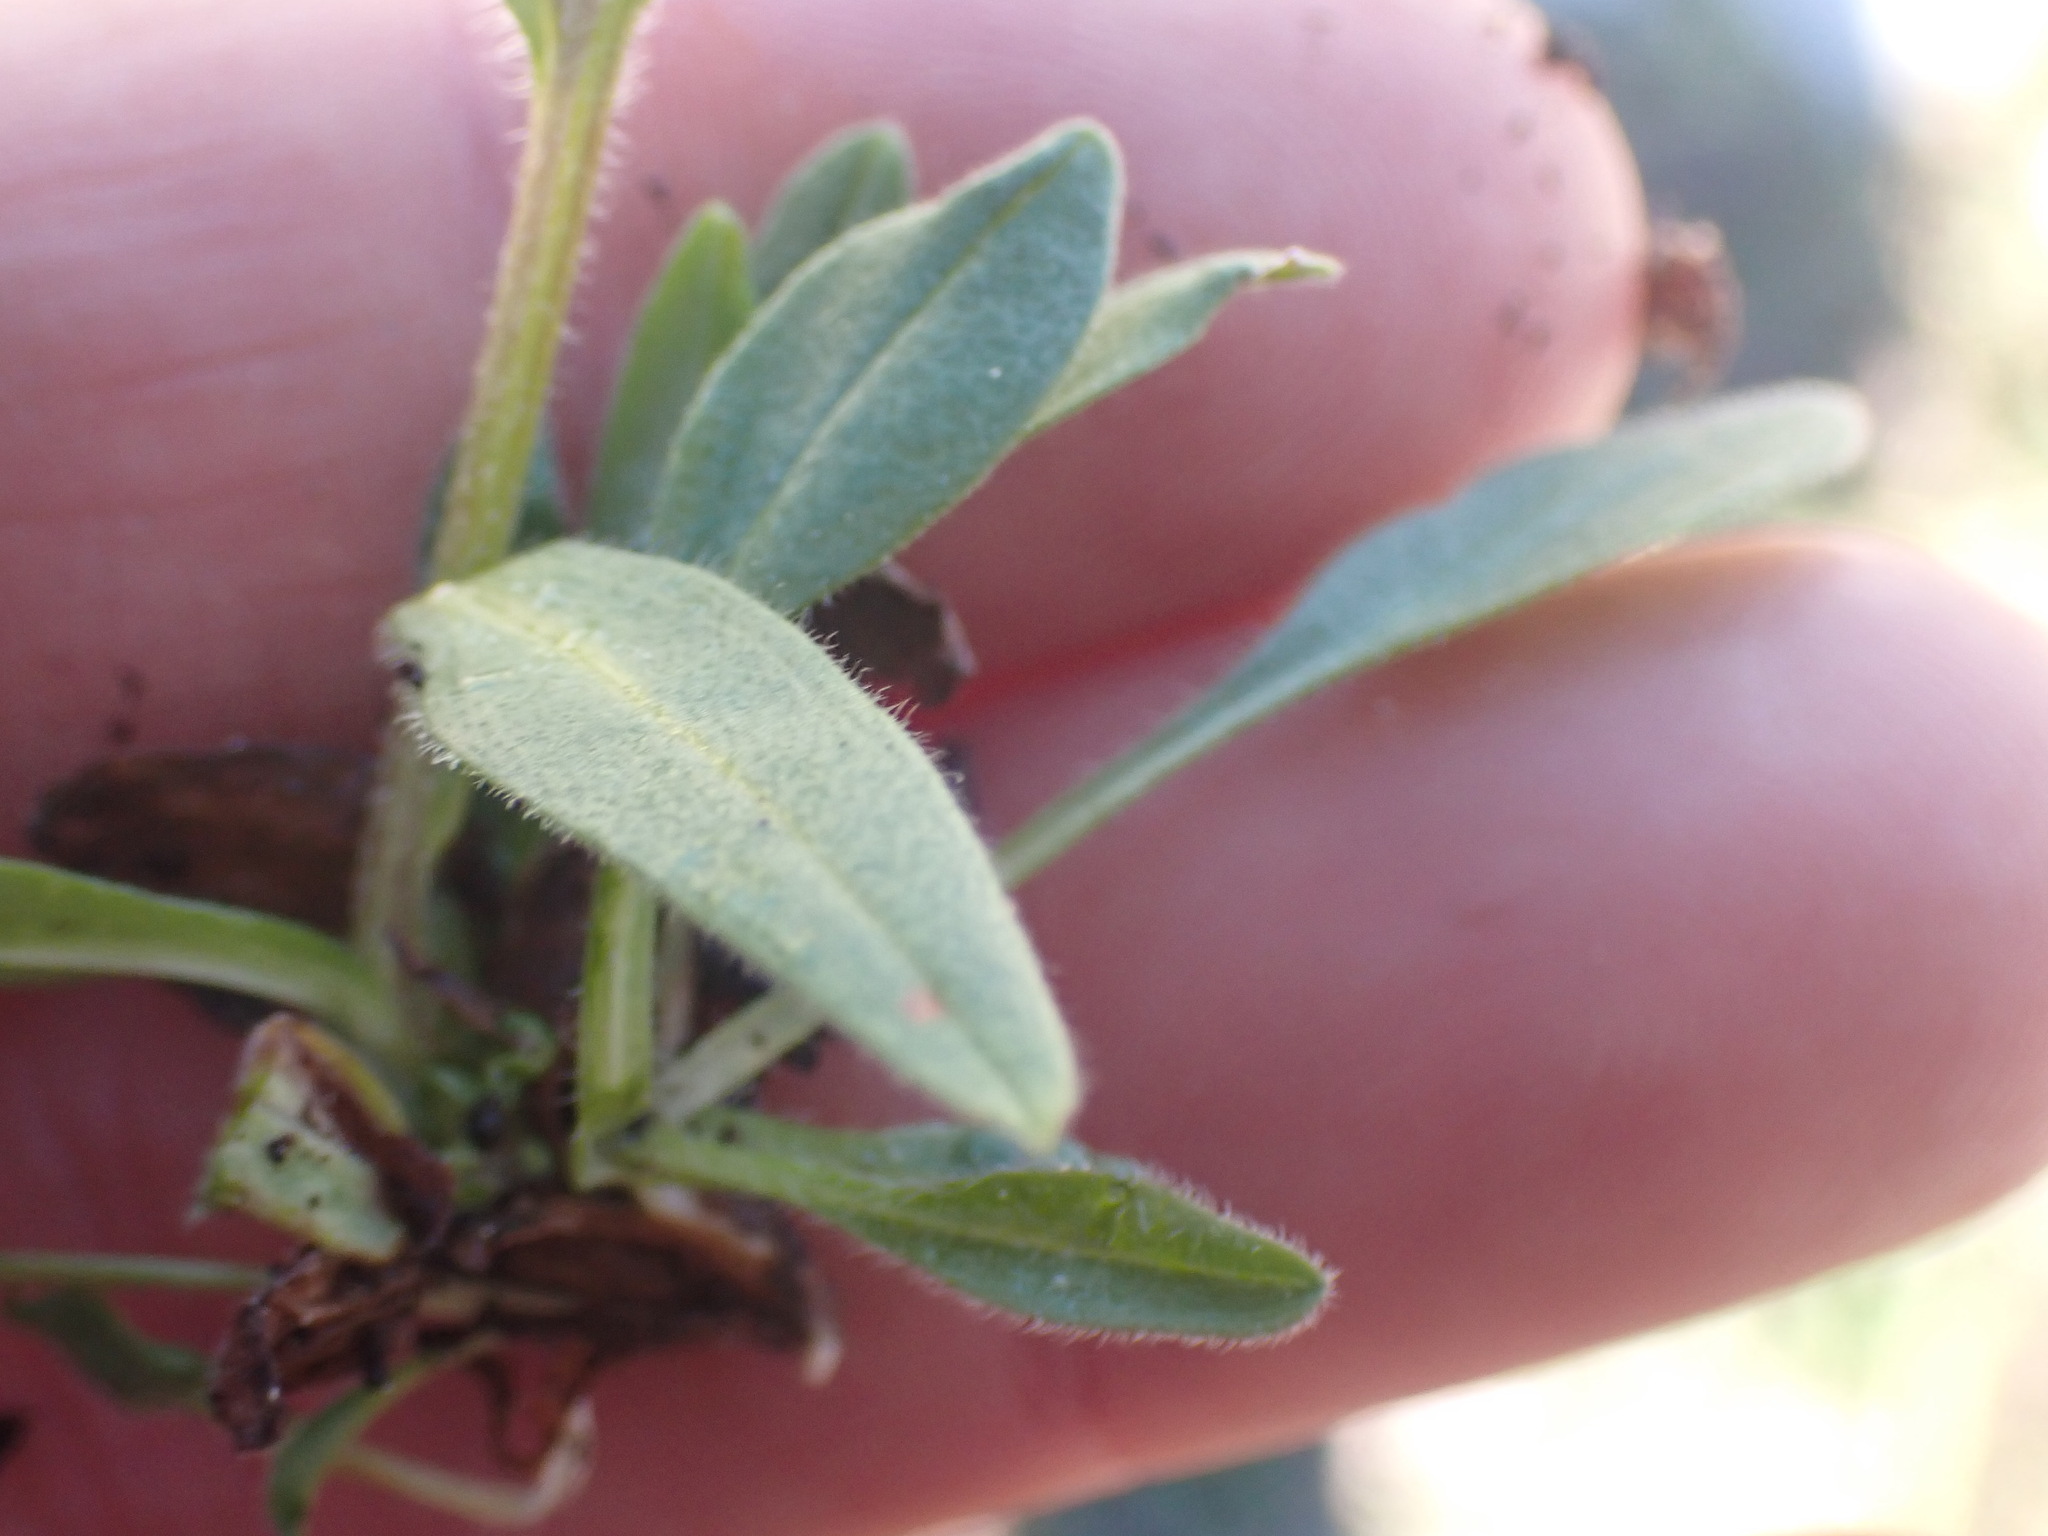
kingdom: Plantae
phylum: Tracheophyta
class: Magnoliopsida
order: Boraginales
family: Boraginaceae
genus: Myosotis
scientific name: Myosotis asiatica
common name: Asian forget-me-not
